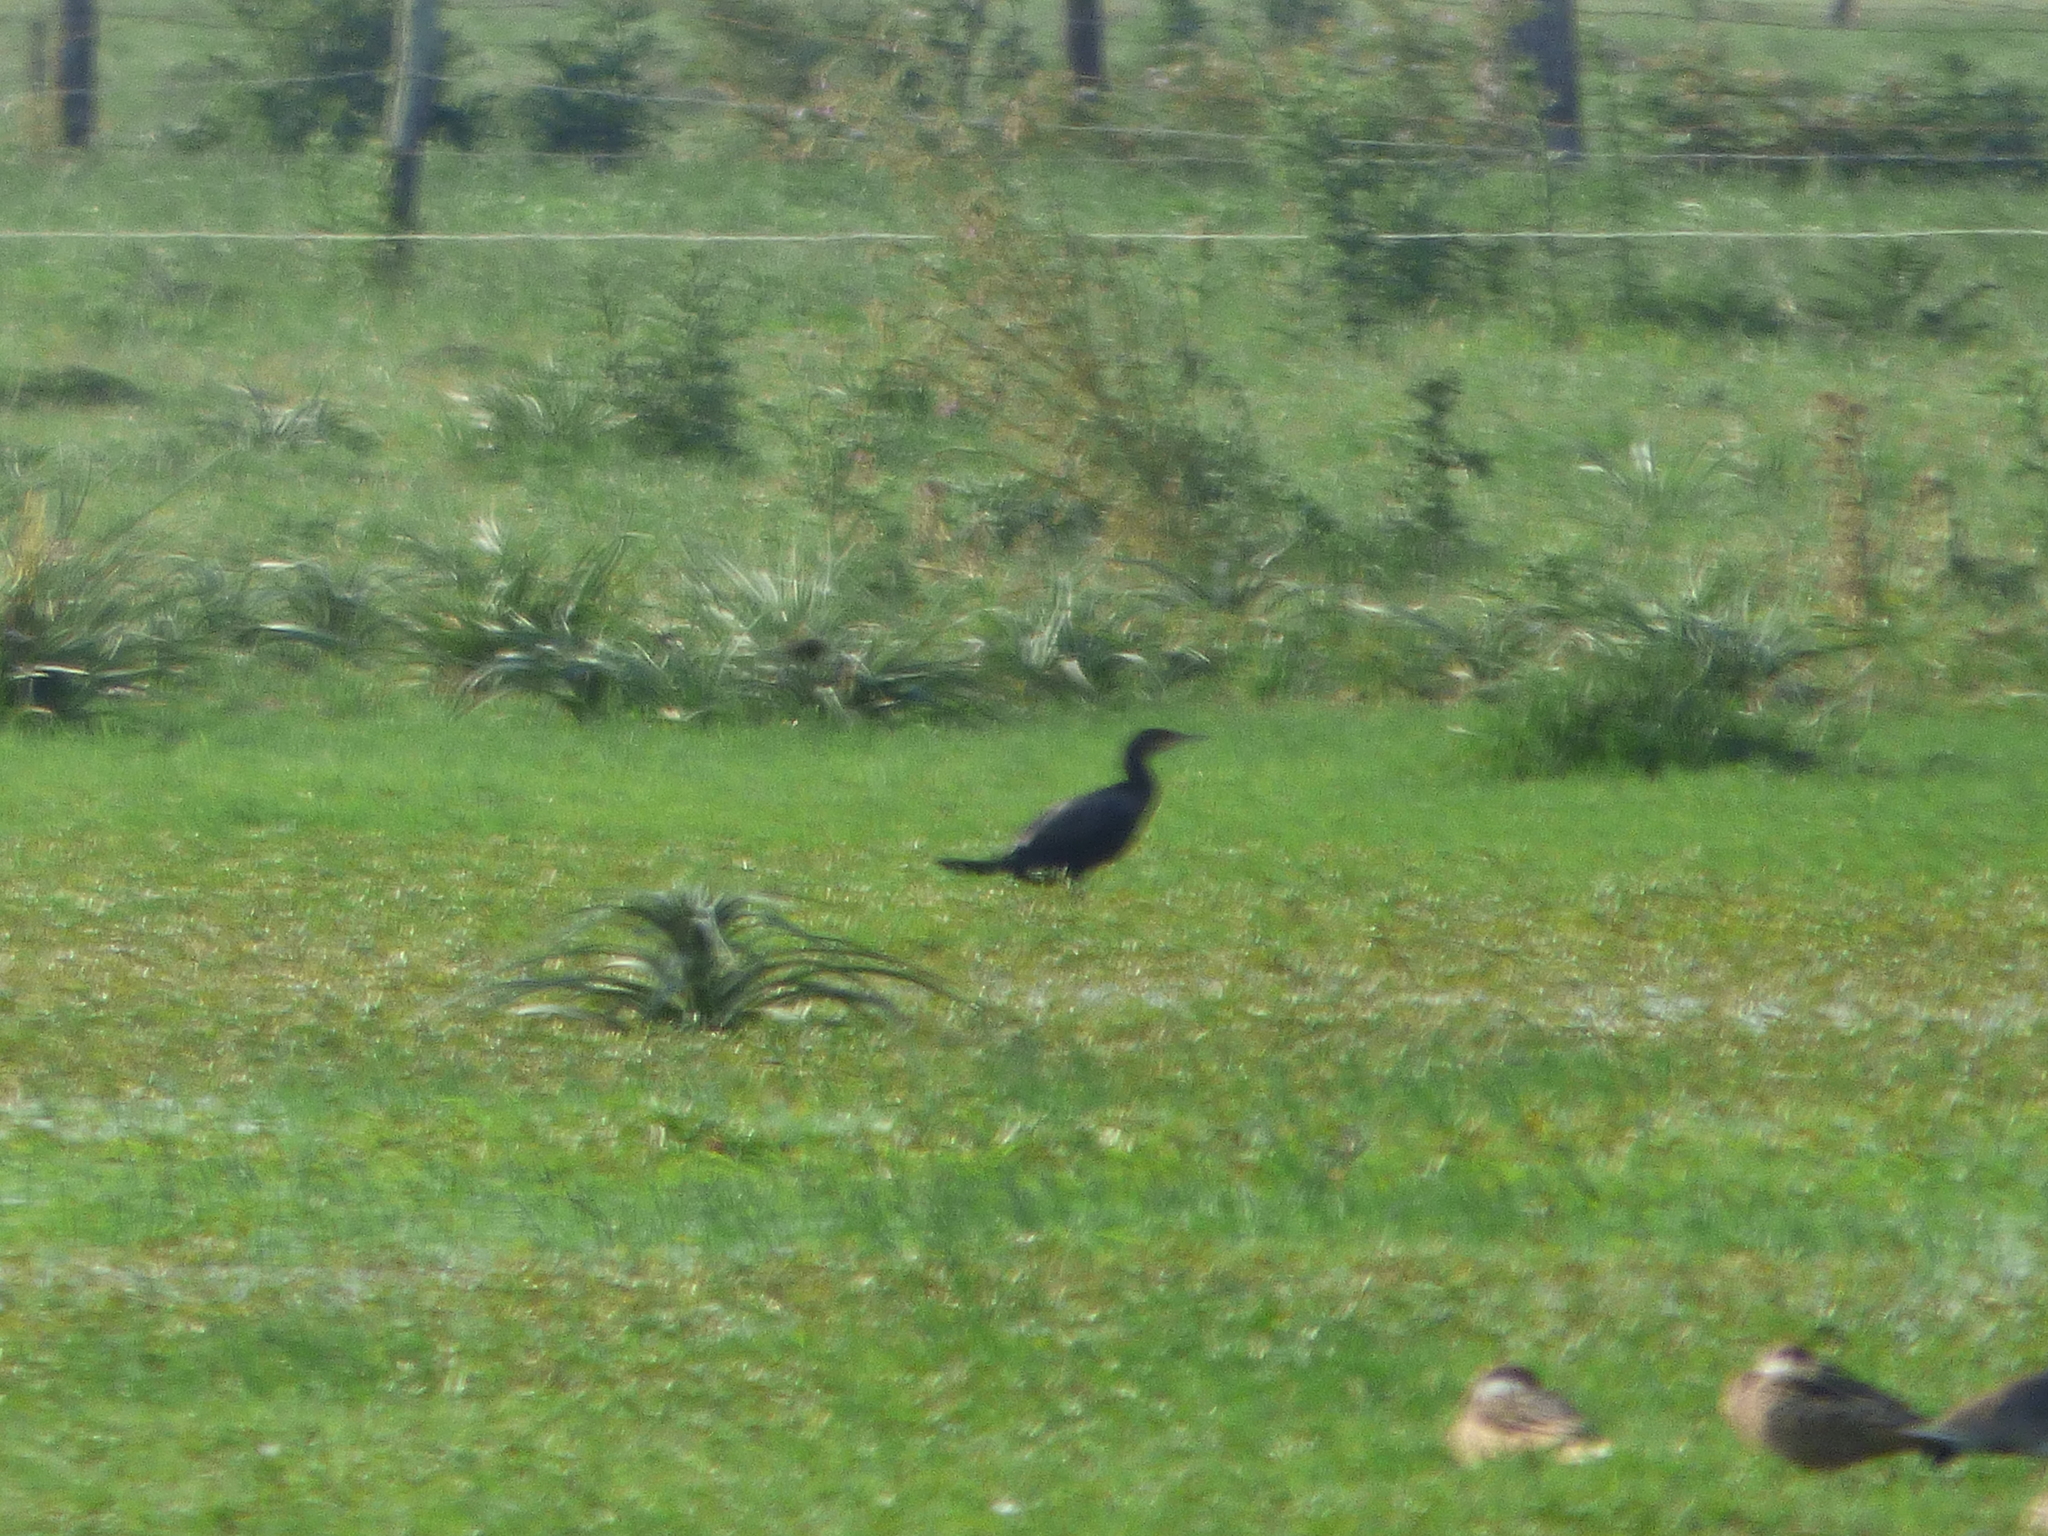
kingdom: Animalia
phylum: Chordata
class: Aves
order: Suliformes
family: Phalacrocoracidae
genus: Phalacrocorax
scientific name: Phalacrocorax brasilianus
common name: Neotropic cormorant
